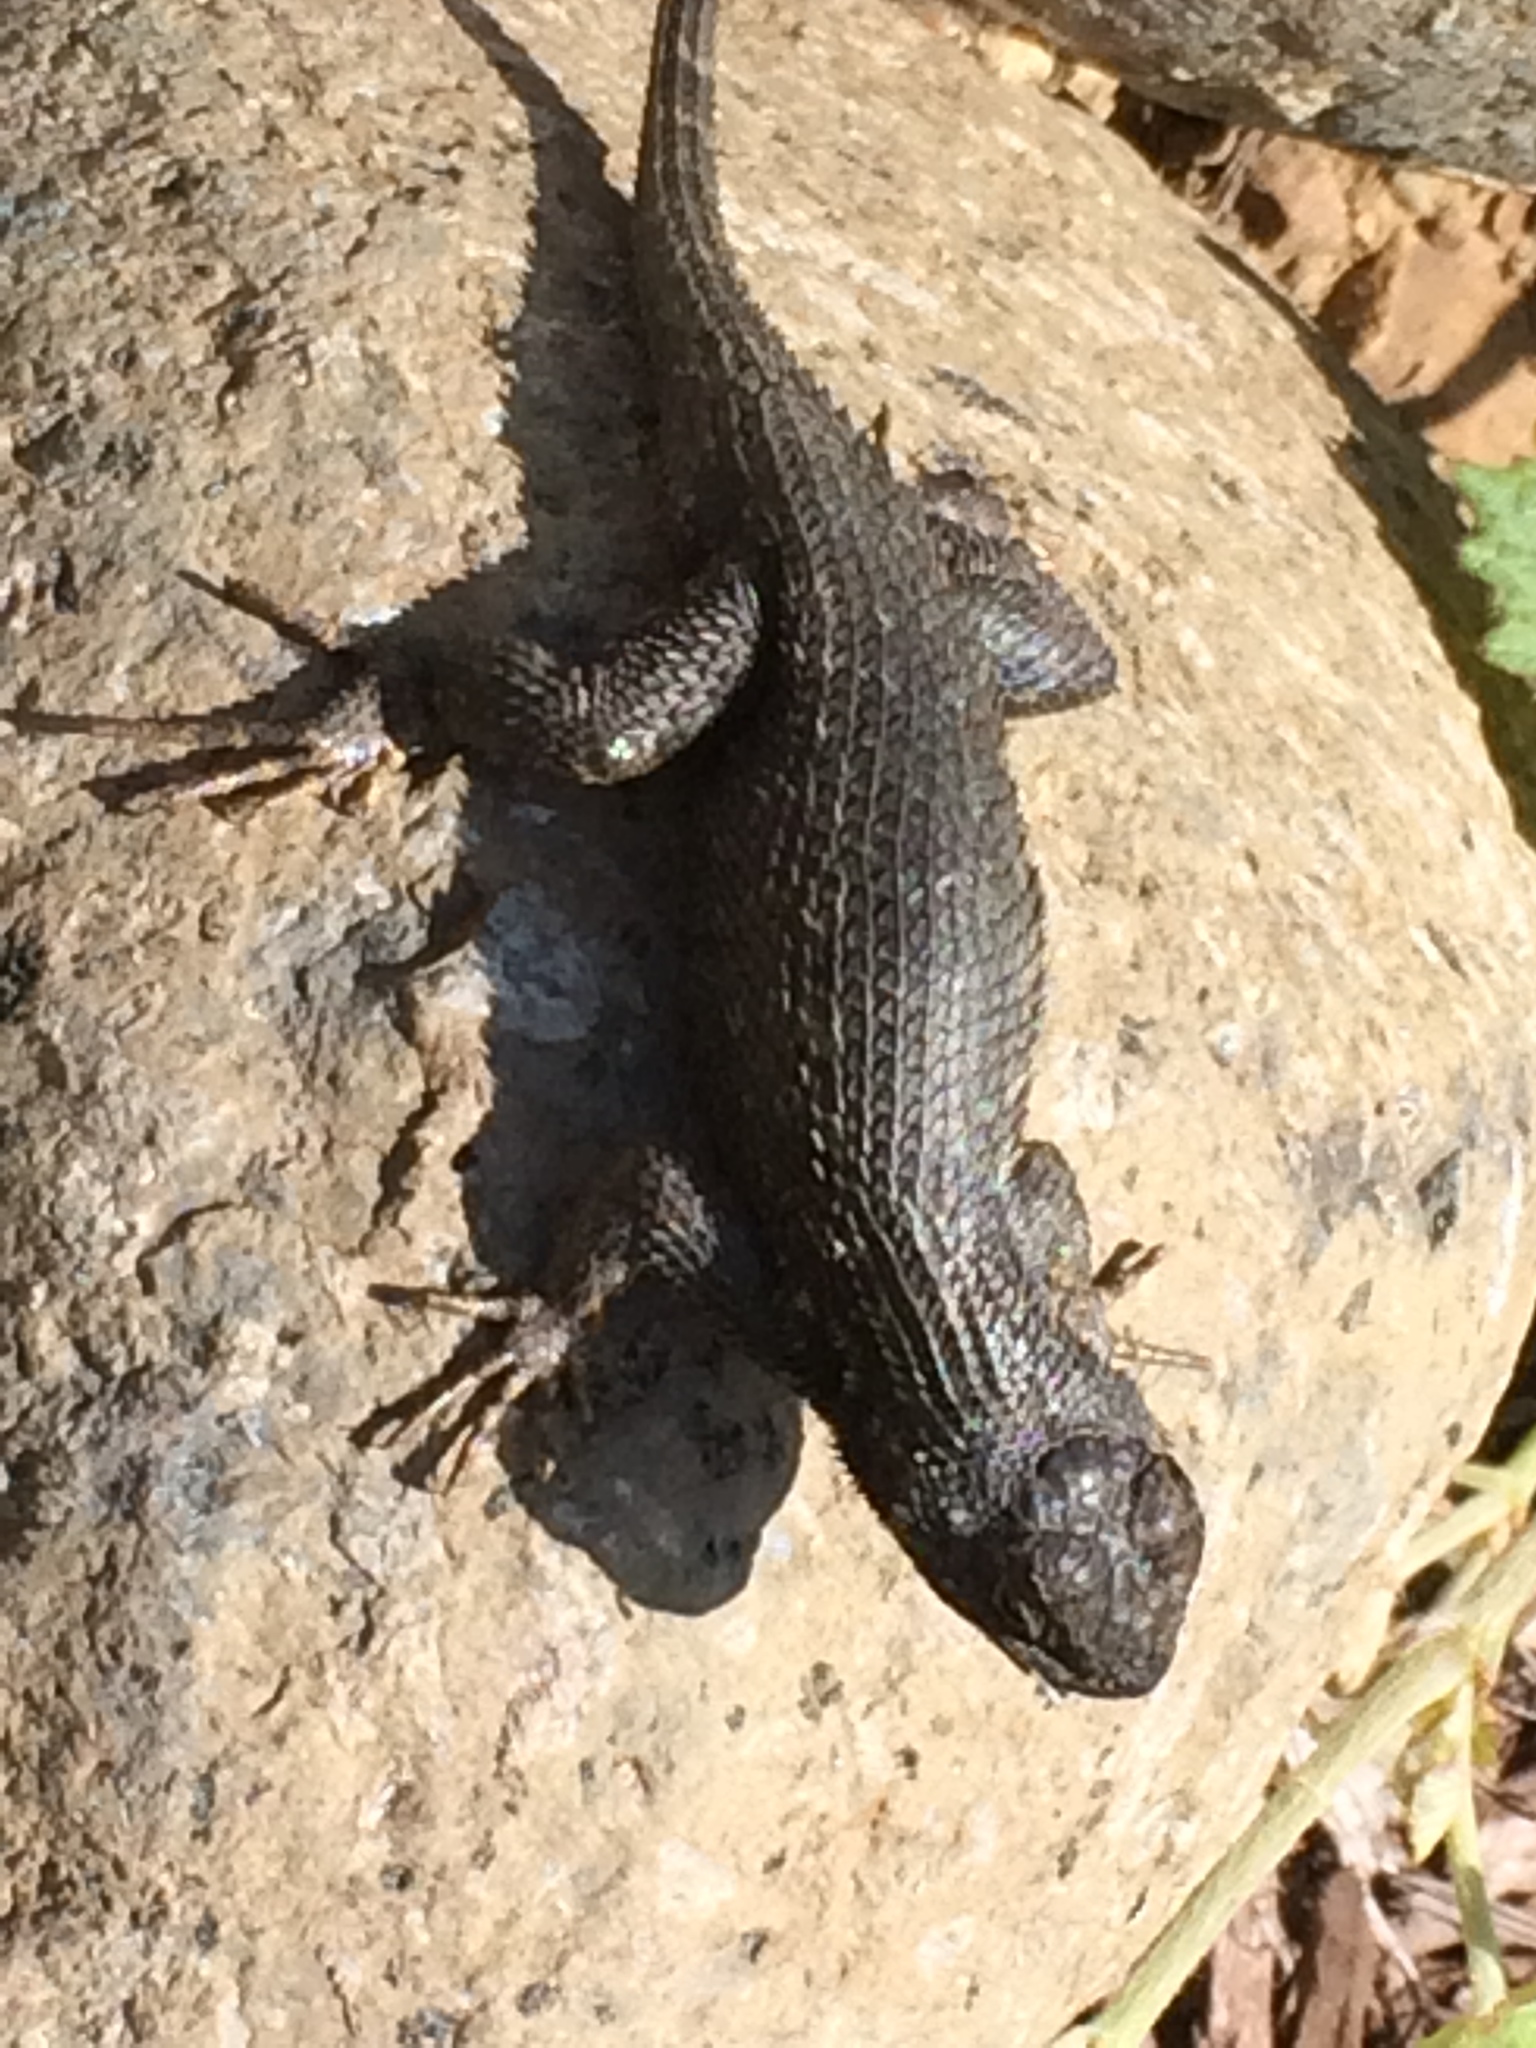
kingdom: Animalia
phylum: Chordata
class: Squamata
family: Phrynosomatidae
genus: Sceloporus
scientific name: Sceloporus occidentalis
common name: Western fence lizard
